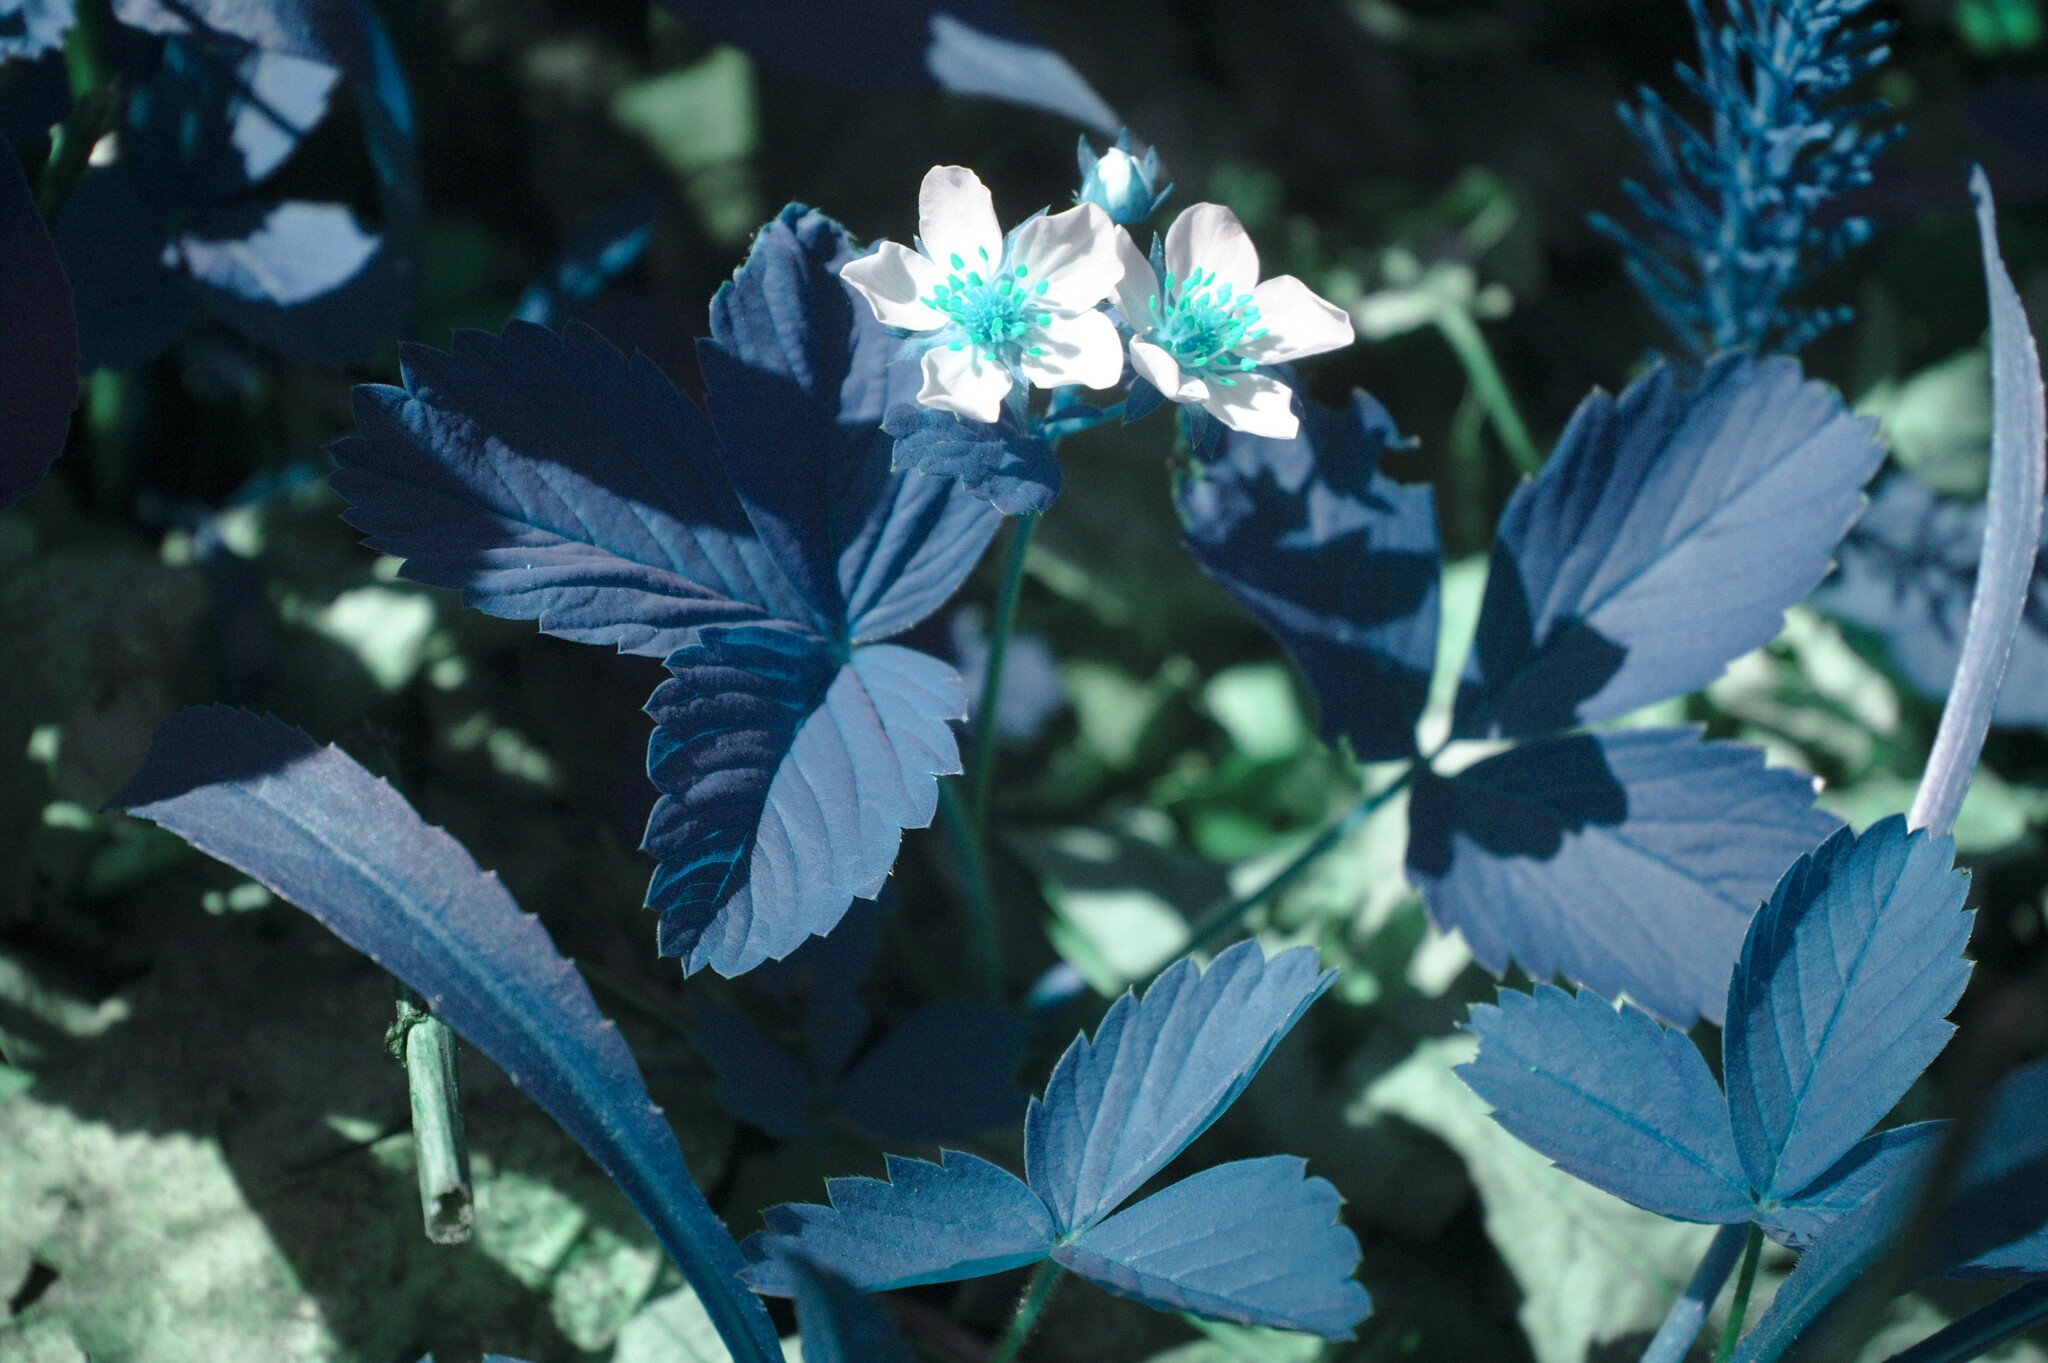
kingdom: Plantae
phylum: Tracheophyta
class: Magnoliopsida
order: Rosales
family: Rosaceae
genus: Fragaria
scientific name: Fragaria virginiana
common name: Thickleaved wild strawberry
